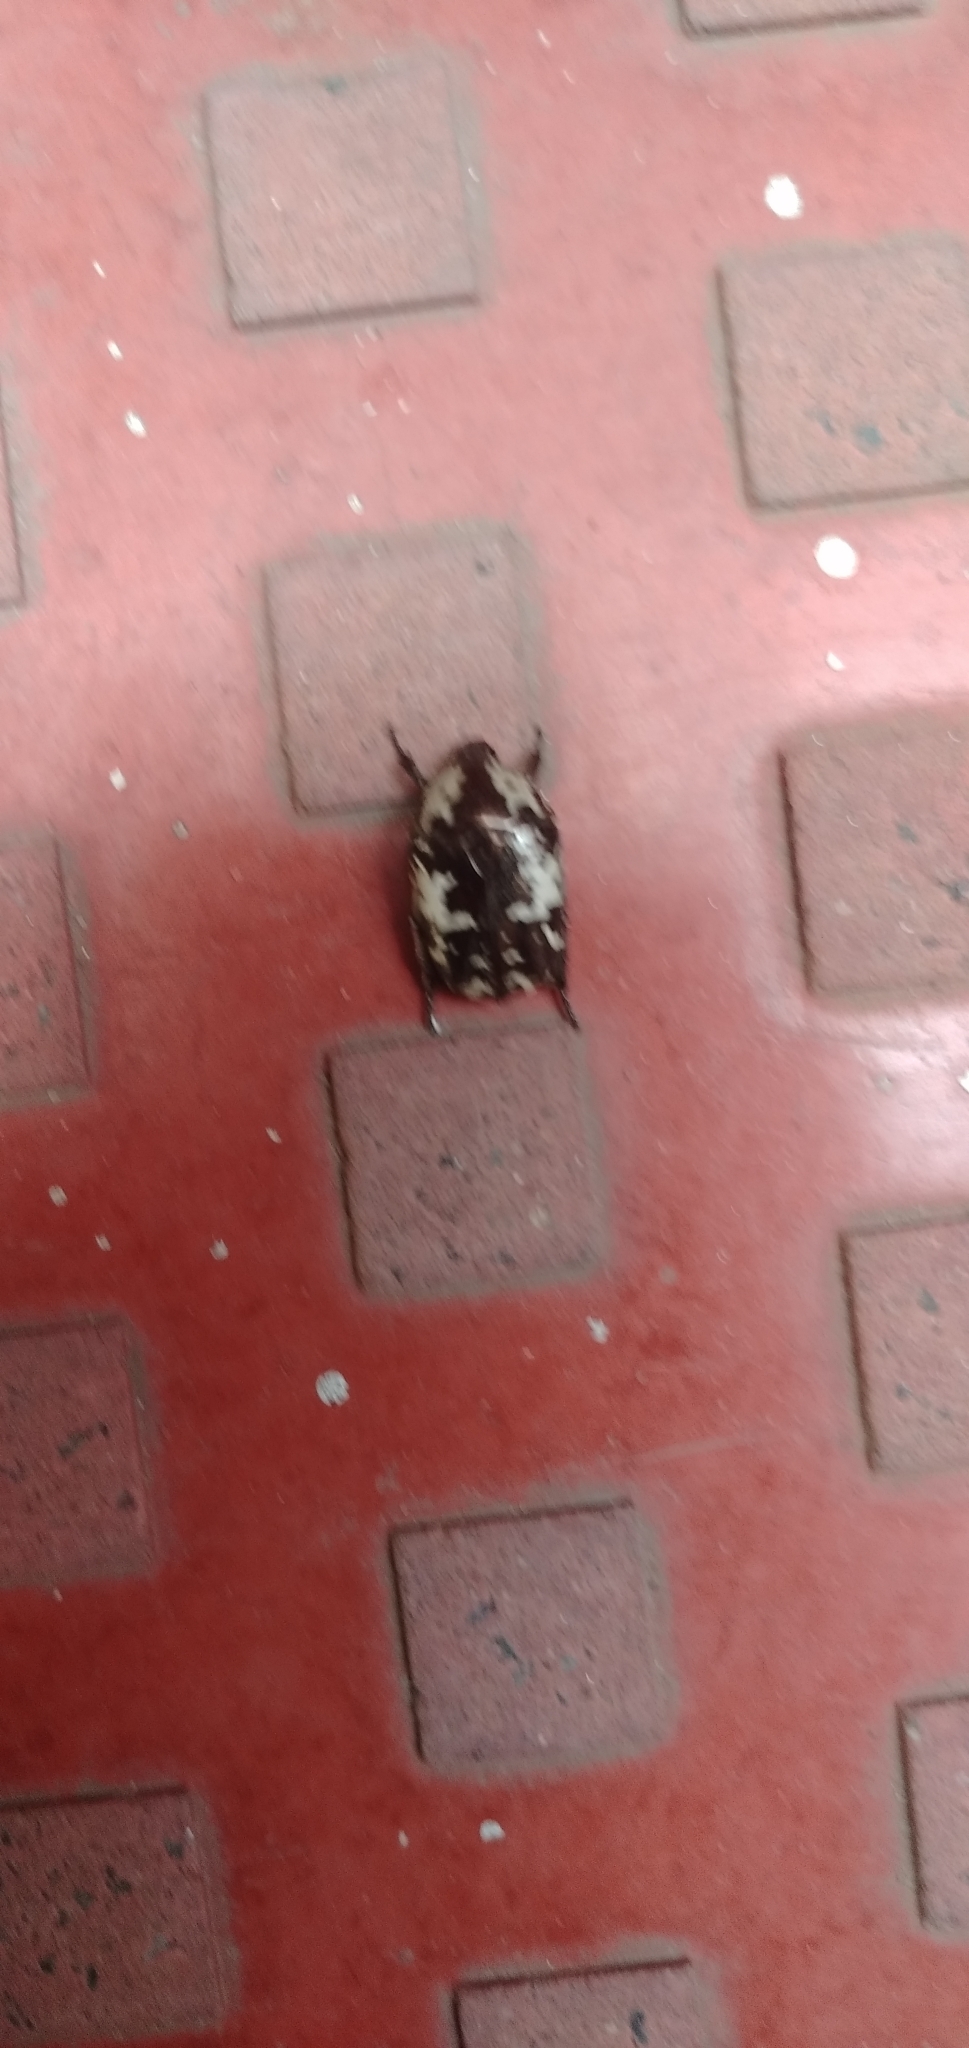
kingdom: Animalia
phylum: Arthropoda
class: Insecta
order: Coleoptera
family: Scarabaeidae
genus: Protaetia
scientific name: Protaetia aurichalcea
